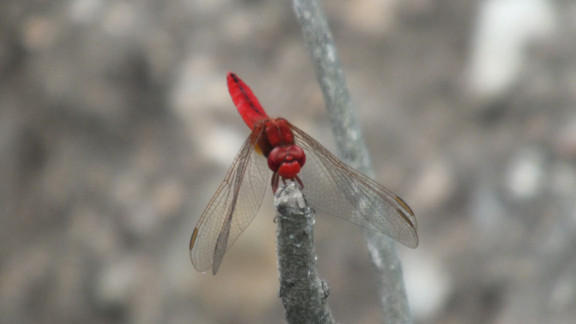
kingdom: Animalia
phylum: Arthropoda
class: Insecta
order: Odonata
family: Libellulidae
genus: Crocothemis
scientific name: Crocothemis erythraea
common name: Scarlet dragonfly
